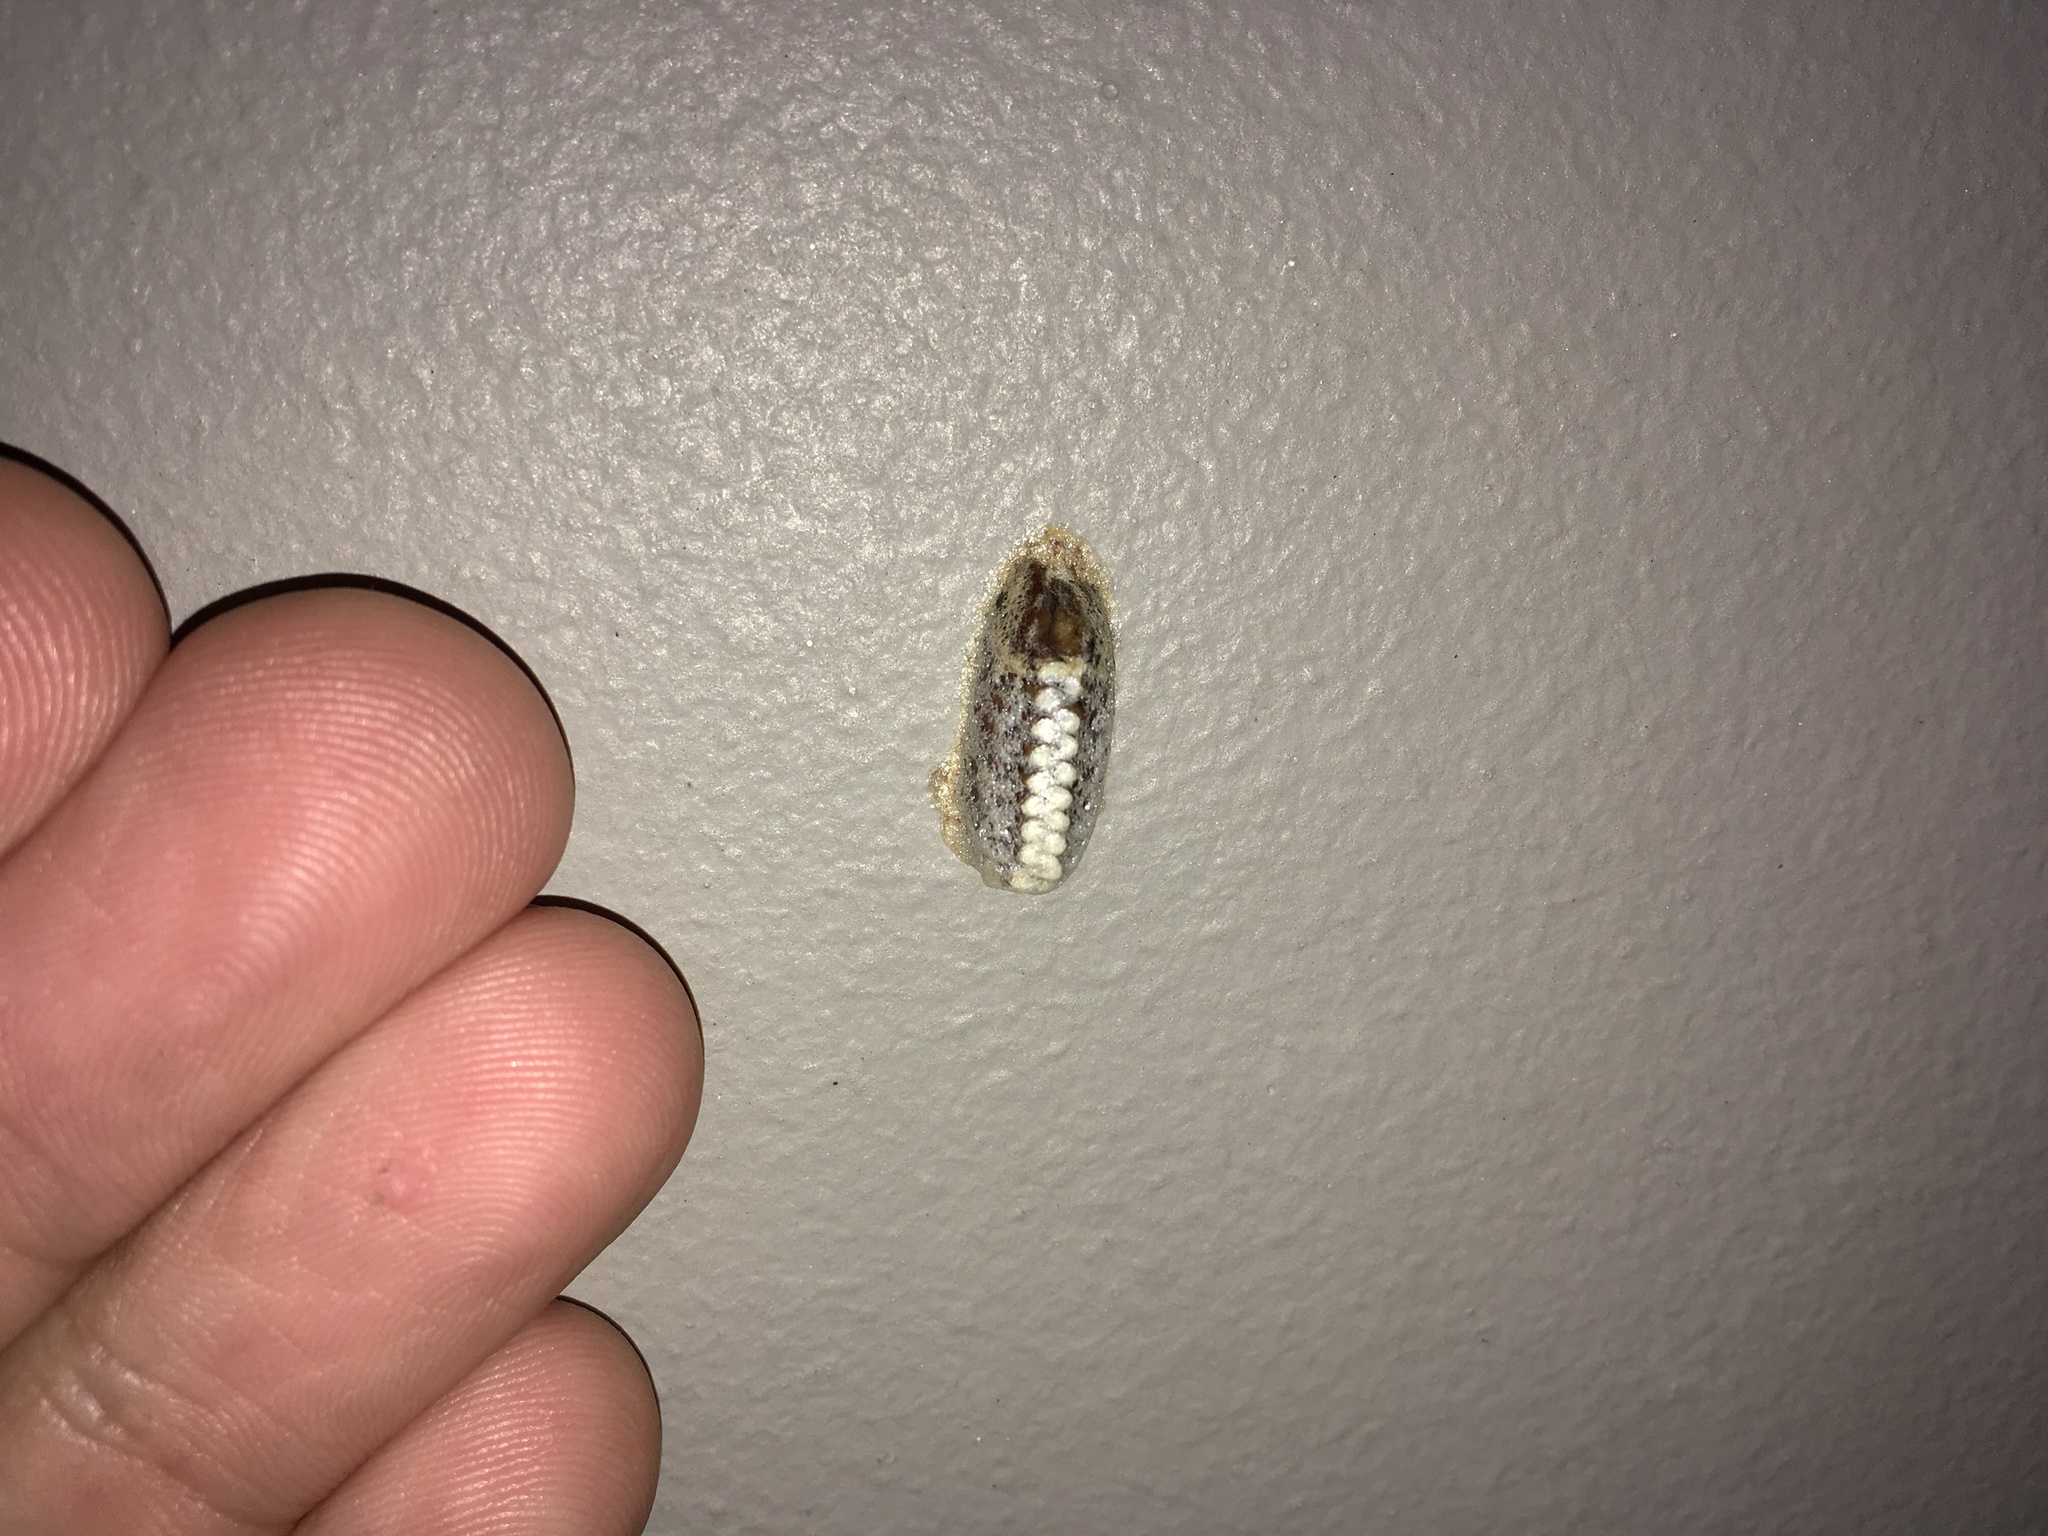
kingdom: Animalia
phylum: Arthropoda
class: Insecta
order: Mantodea
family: Mantidae
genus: Orthodera
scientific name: Orthodera novaezealandiae
